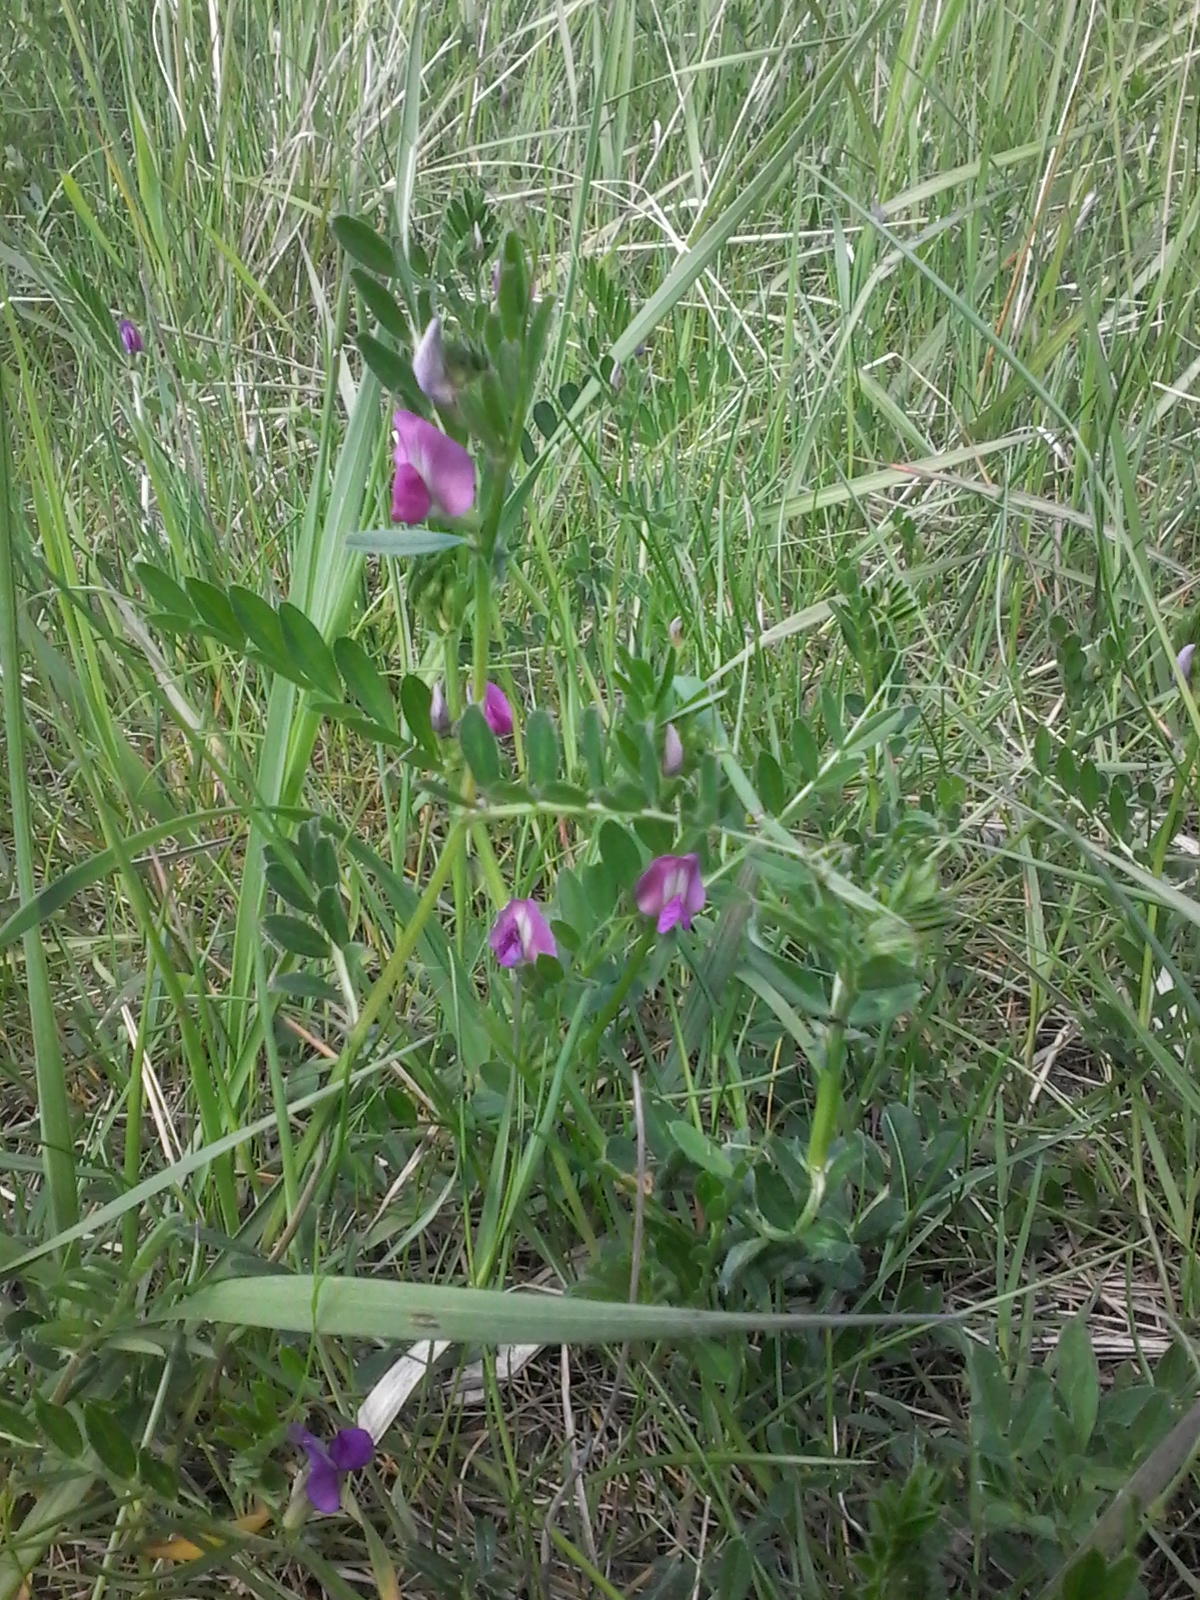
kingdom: Plantae
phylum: Tracheophyta
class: Magnoliopsida
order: Fabales
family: Fabaceae
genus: Vicia
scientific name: Vicia sativa
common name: Garden vetch
